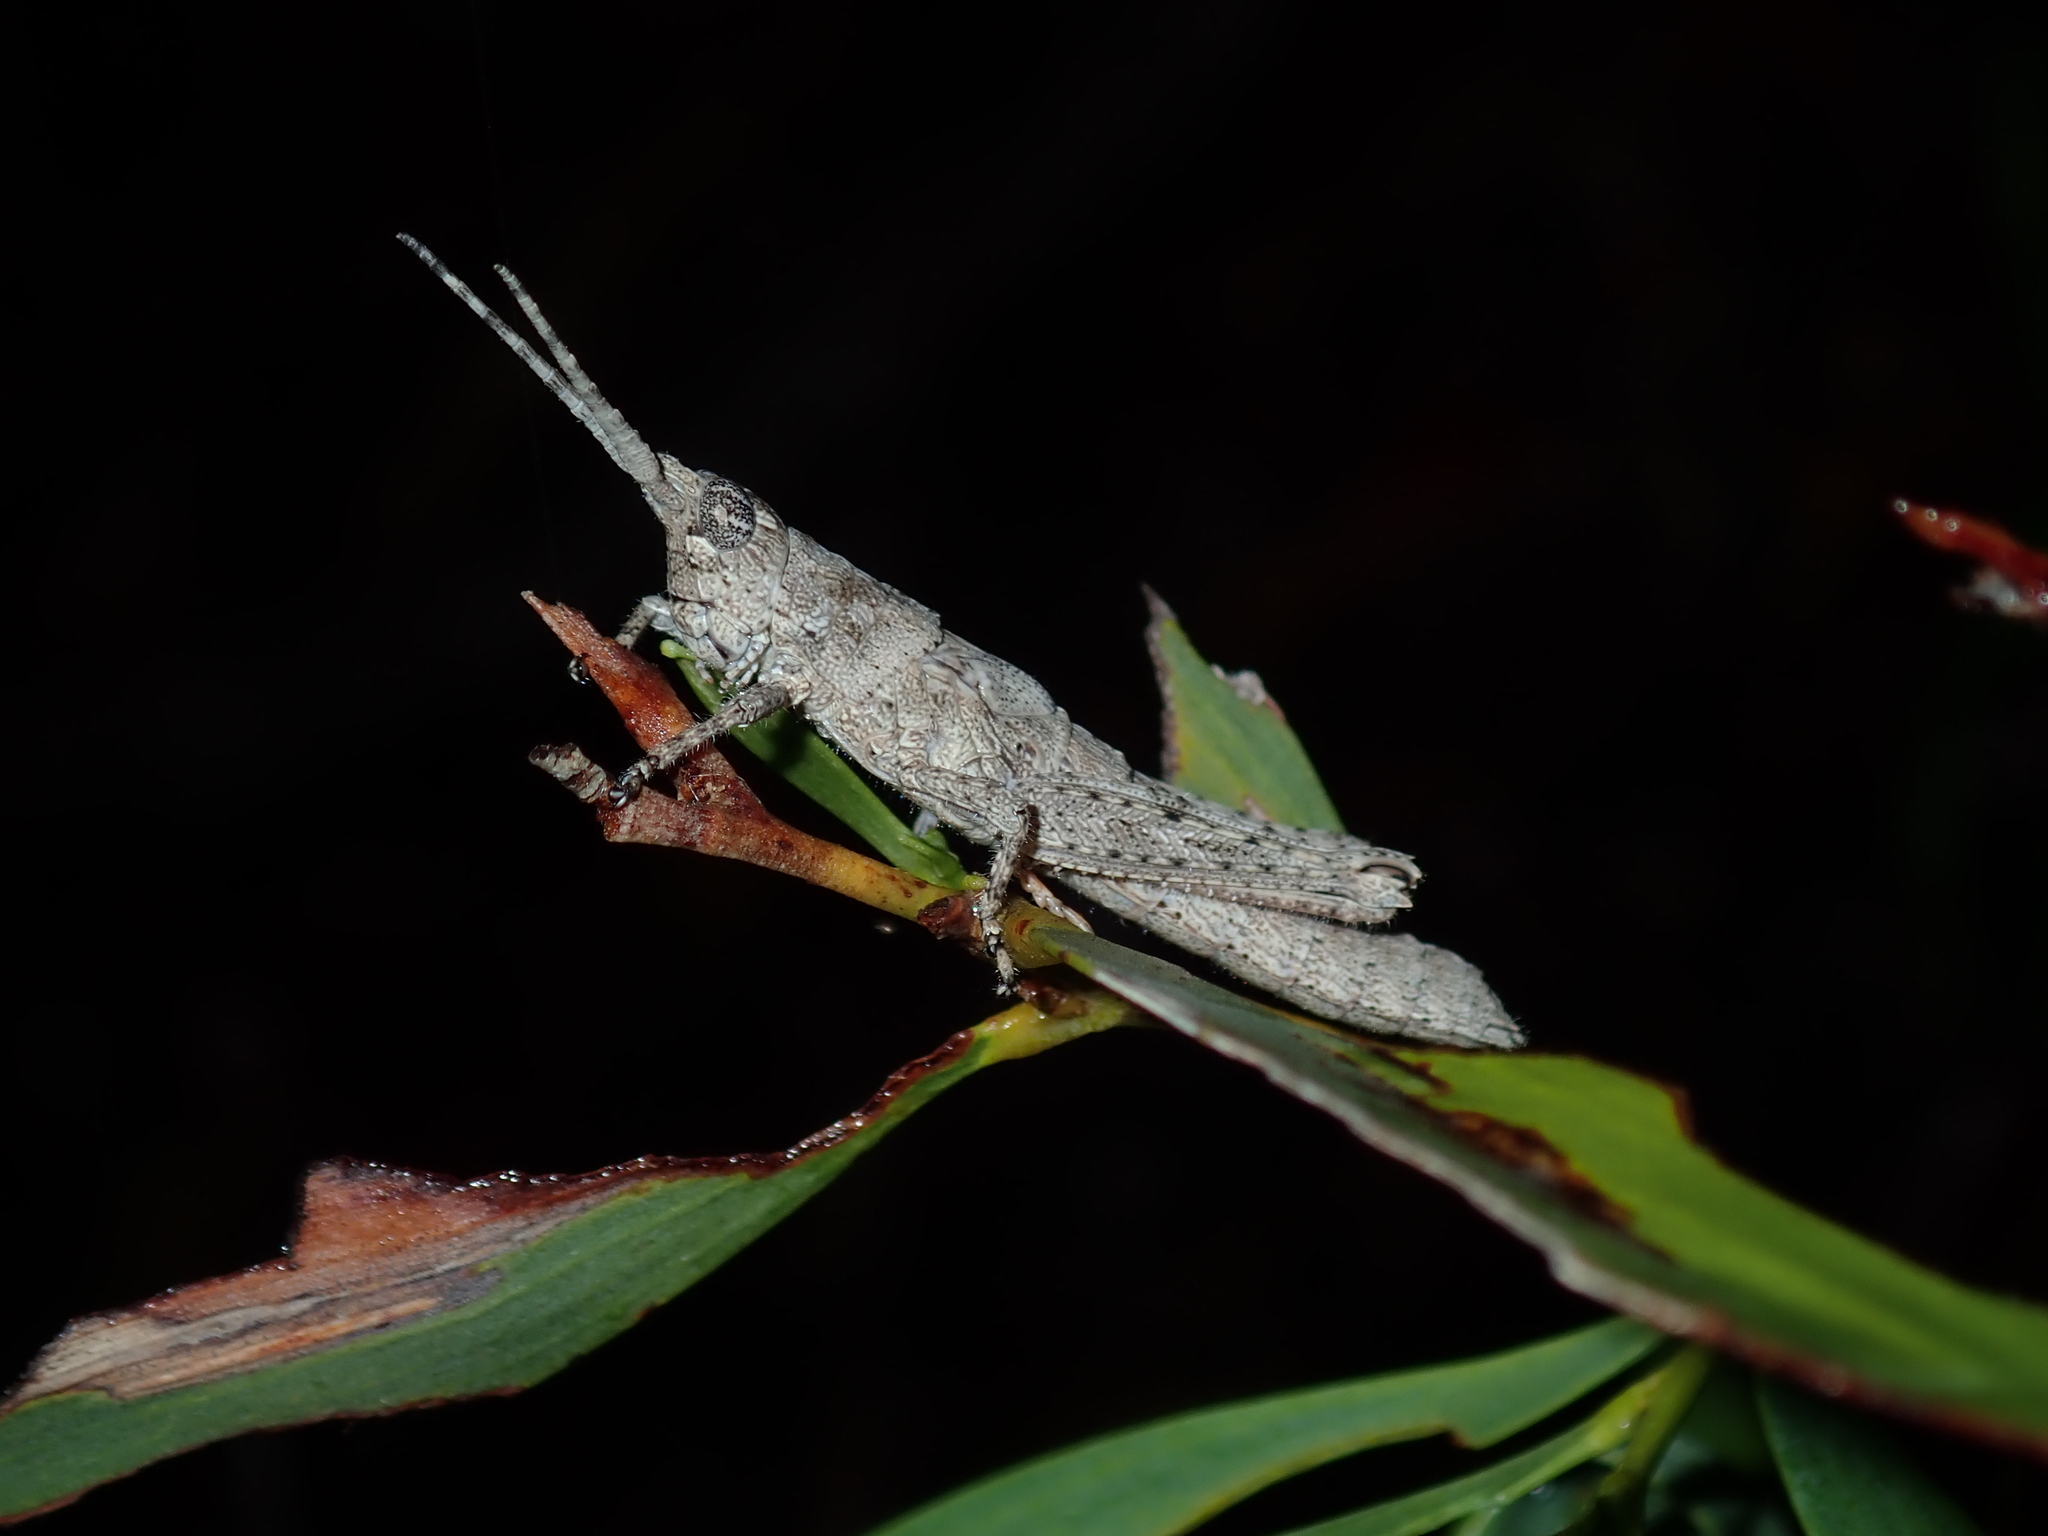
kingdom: Animalia
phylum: Arthropoda
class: Insecta
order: Orthoptera
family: Acrididae
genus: Coryphistes
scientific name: Coryphistes ruricola
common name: Bark-mimicking grasshopper
